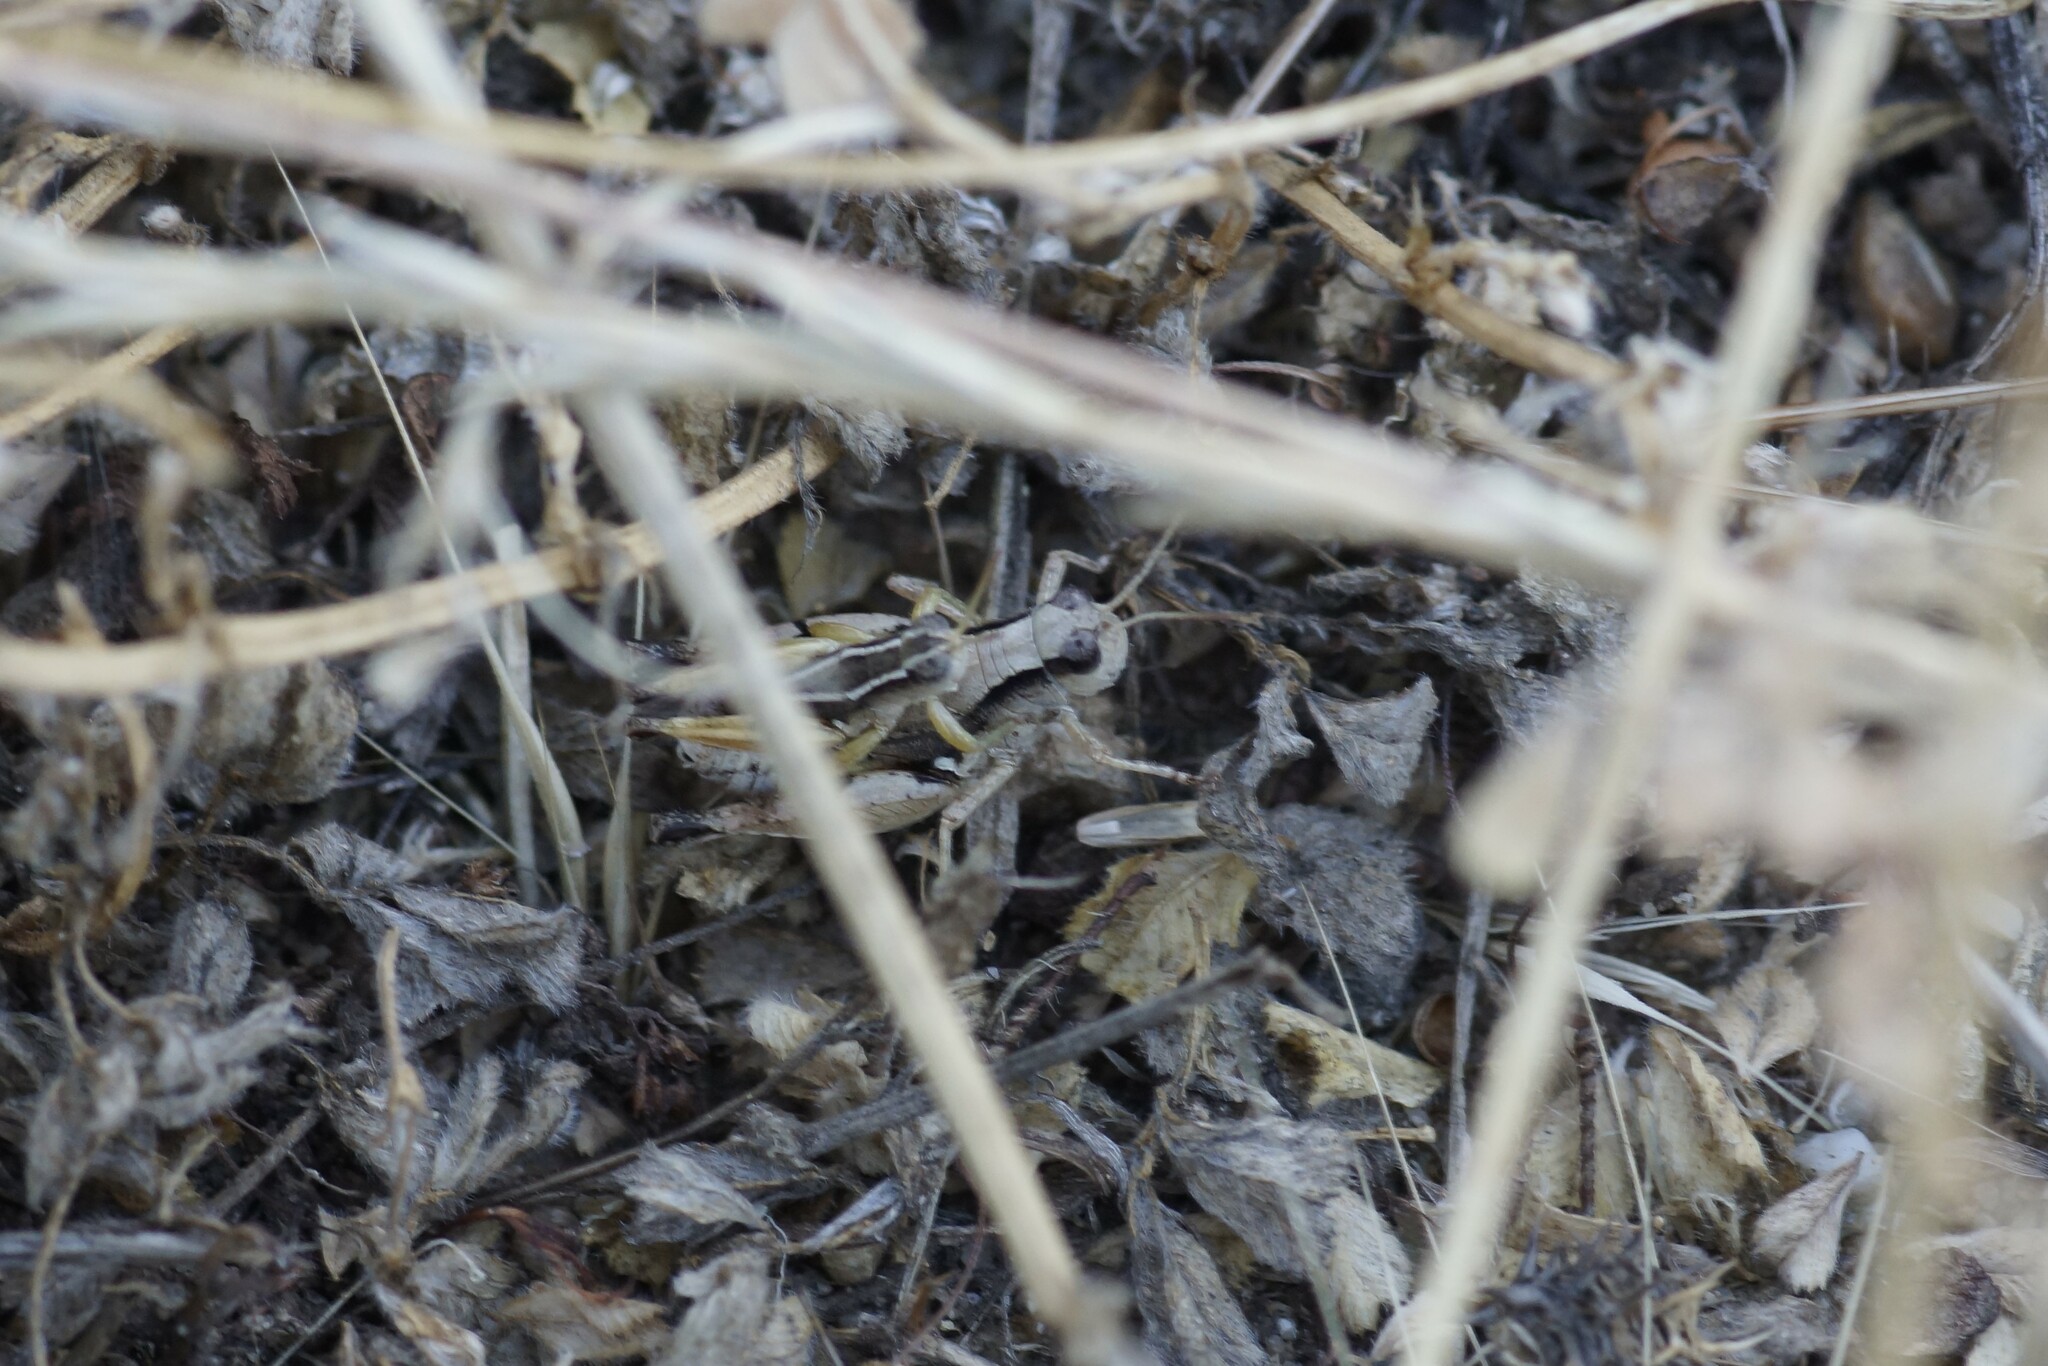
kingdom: Animalia
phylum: Arthropoda
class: Insecta
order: Orthoptera
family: Acrididae
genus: Phaulacridium
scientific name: Phaulacridium vittatum
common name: Wingless grasshopper
